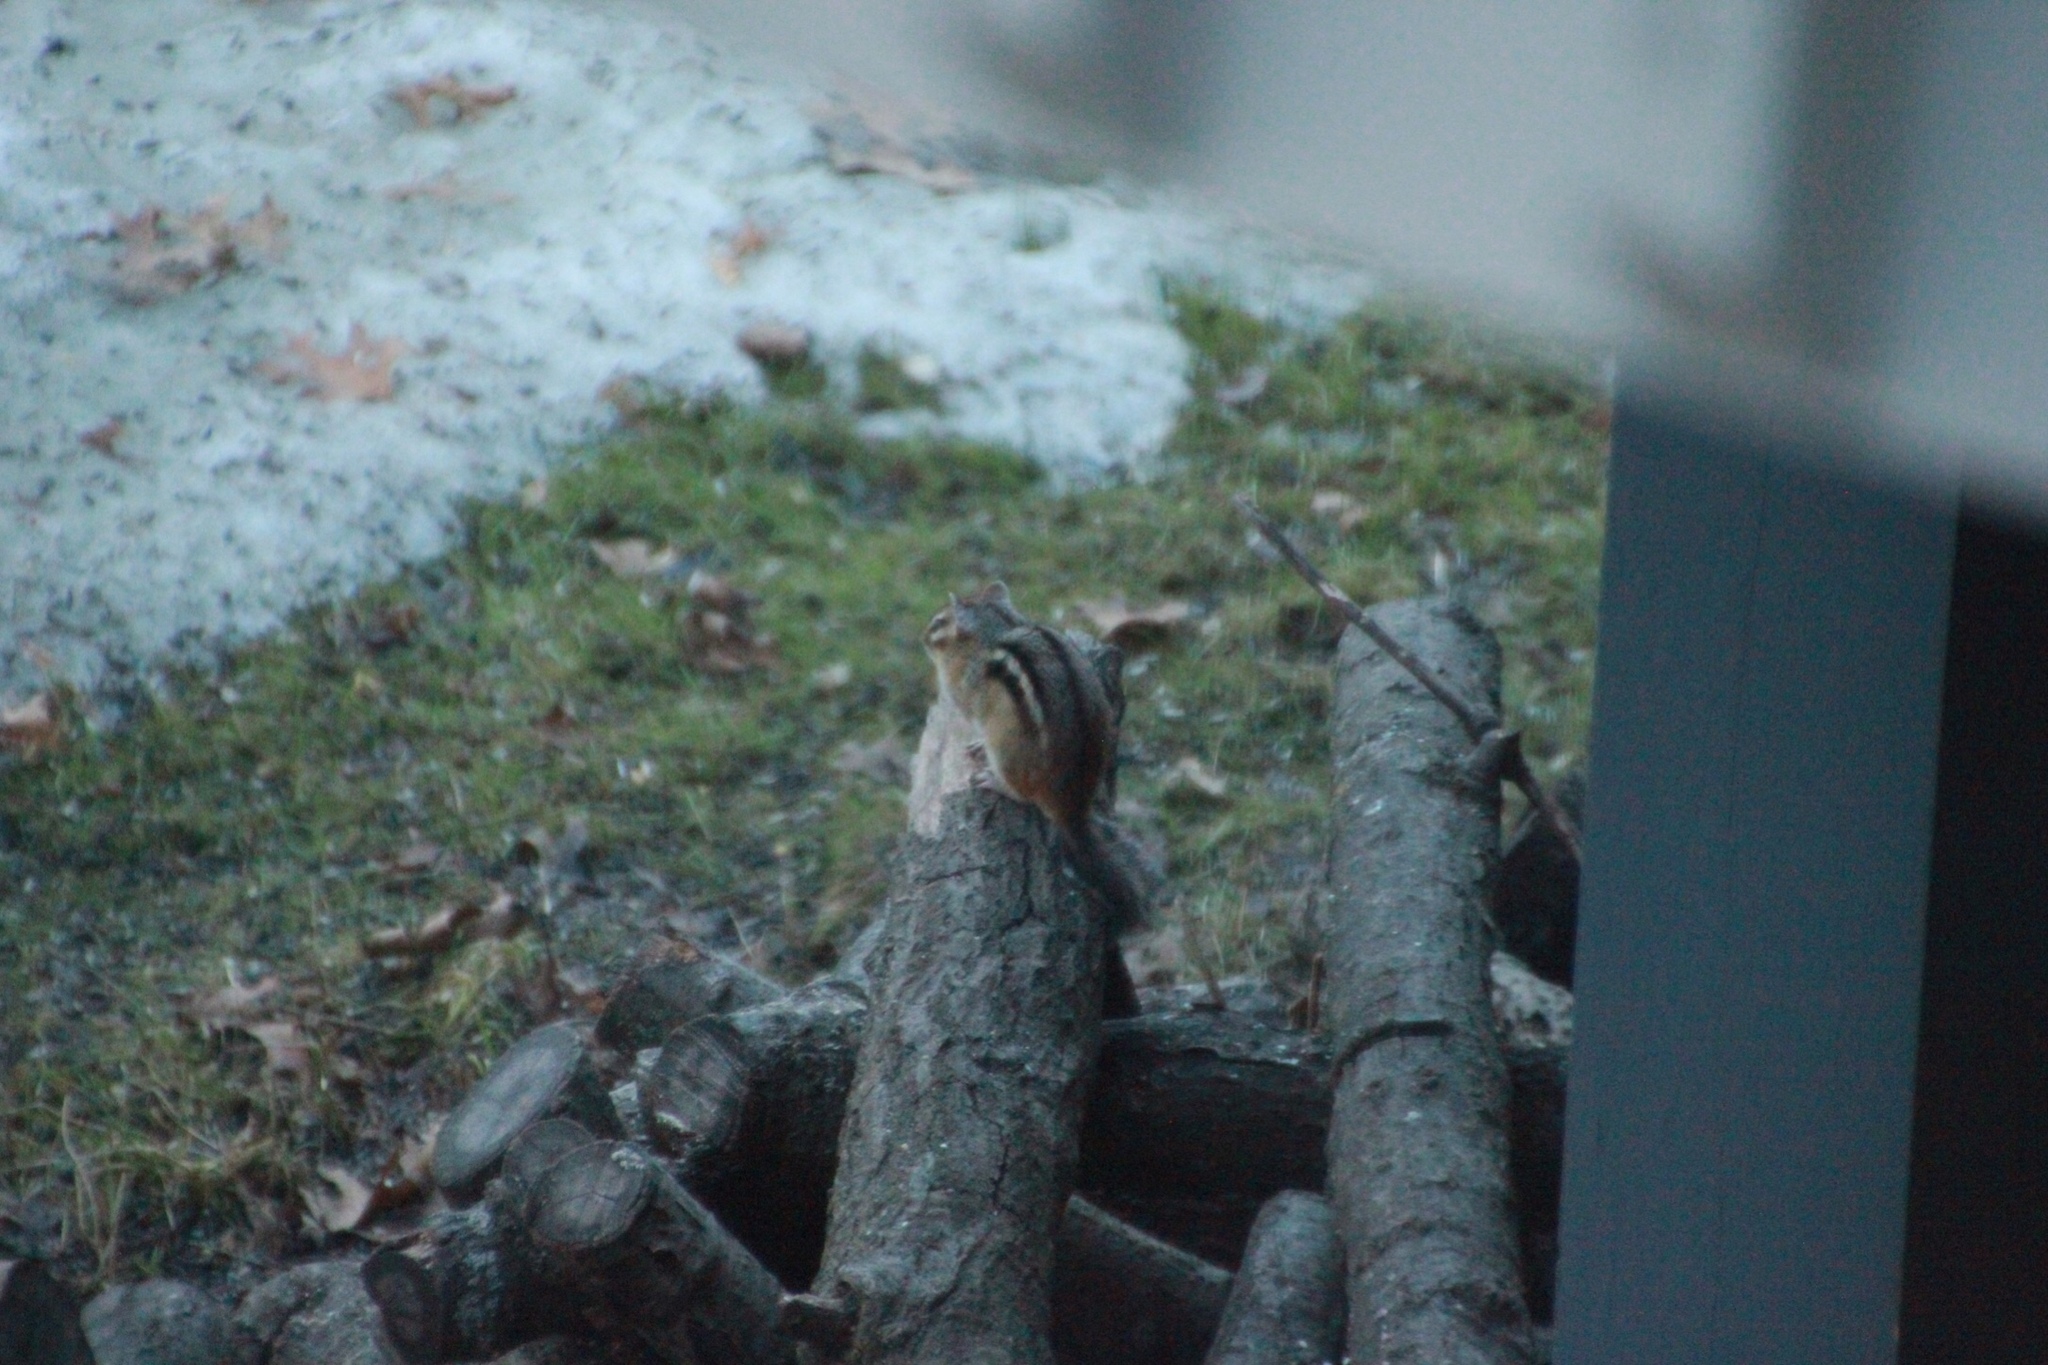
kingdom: Animalia
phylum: Chordata
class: Mammalia
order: Rodentia
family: Sciuridae
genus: Tamias
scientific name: Tamias striatus
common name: Eastern chipmunk
